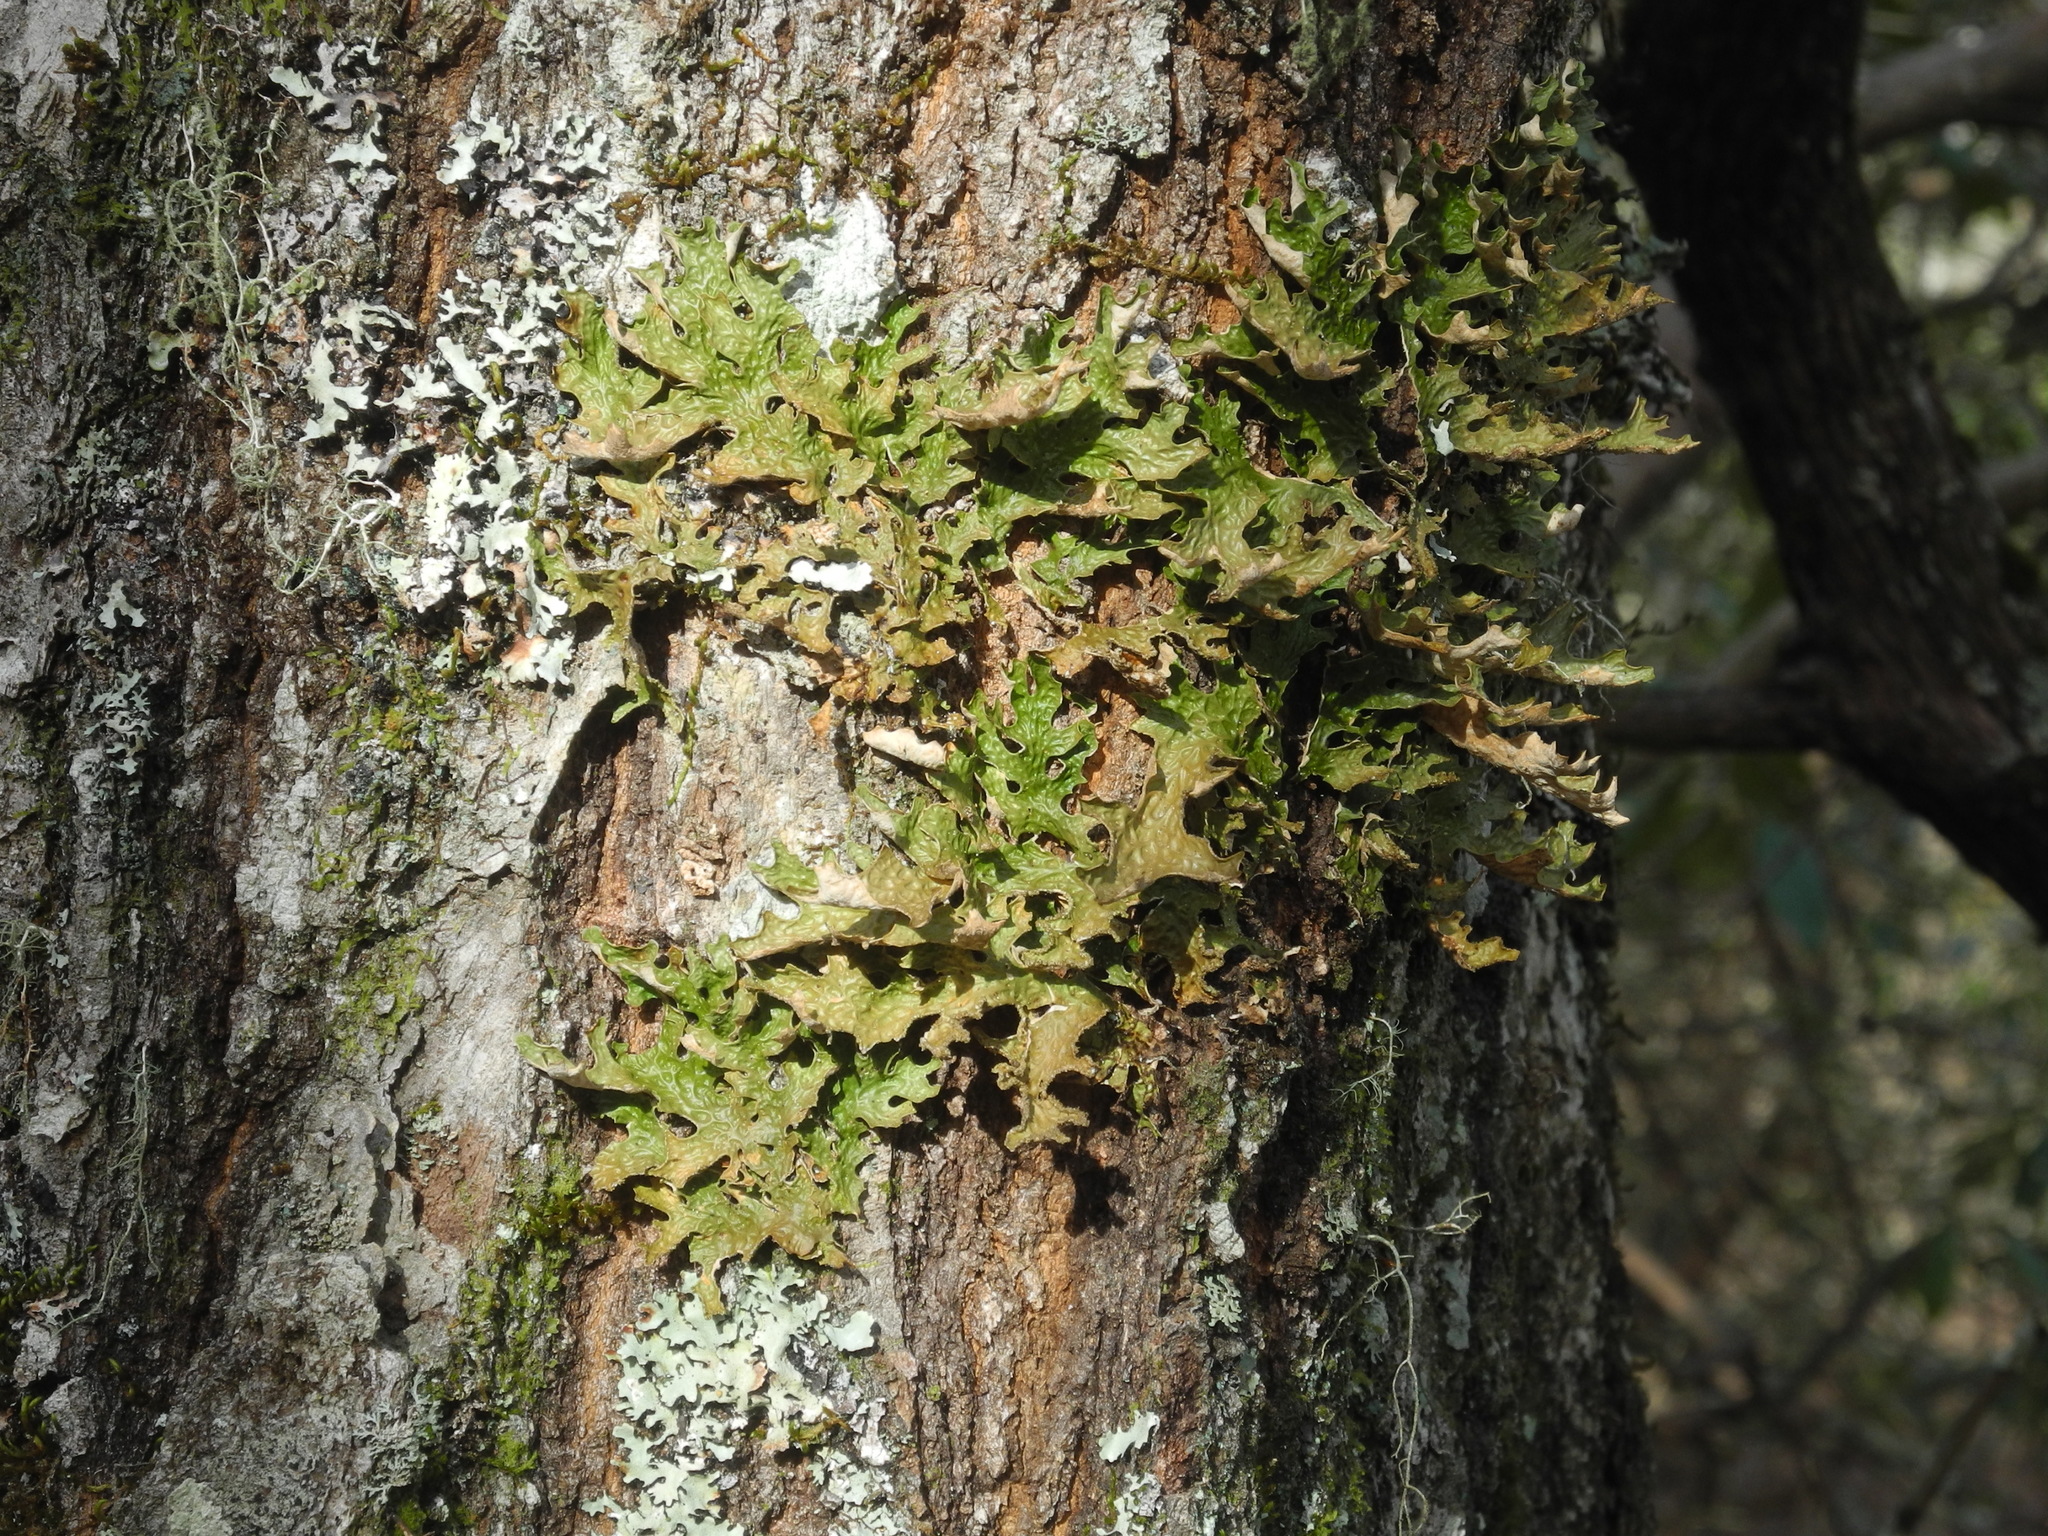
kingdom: Fungi
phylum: Ascomycota
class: Lecanoromycetes
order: Peltigerales
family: Lobariaceae
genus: Lobaria
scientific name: Lobaria pulmonaria
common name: Lungwort
